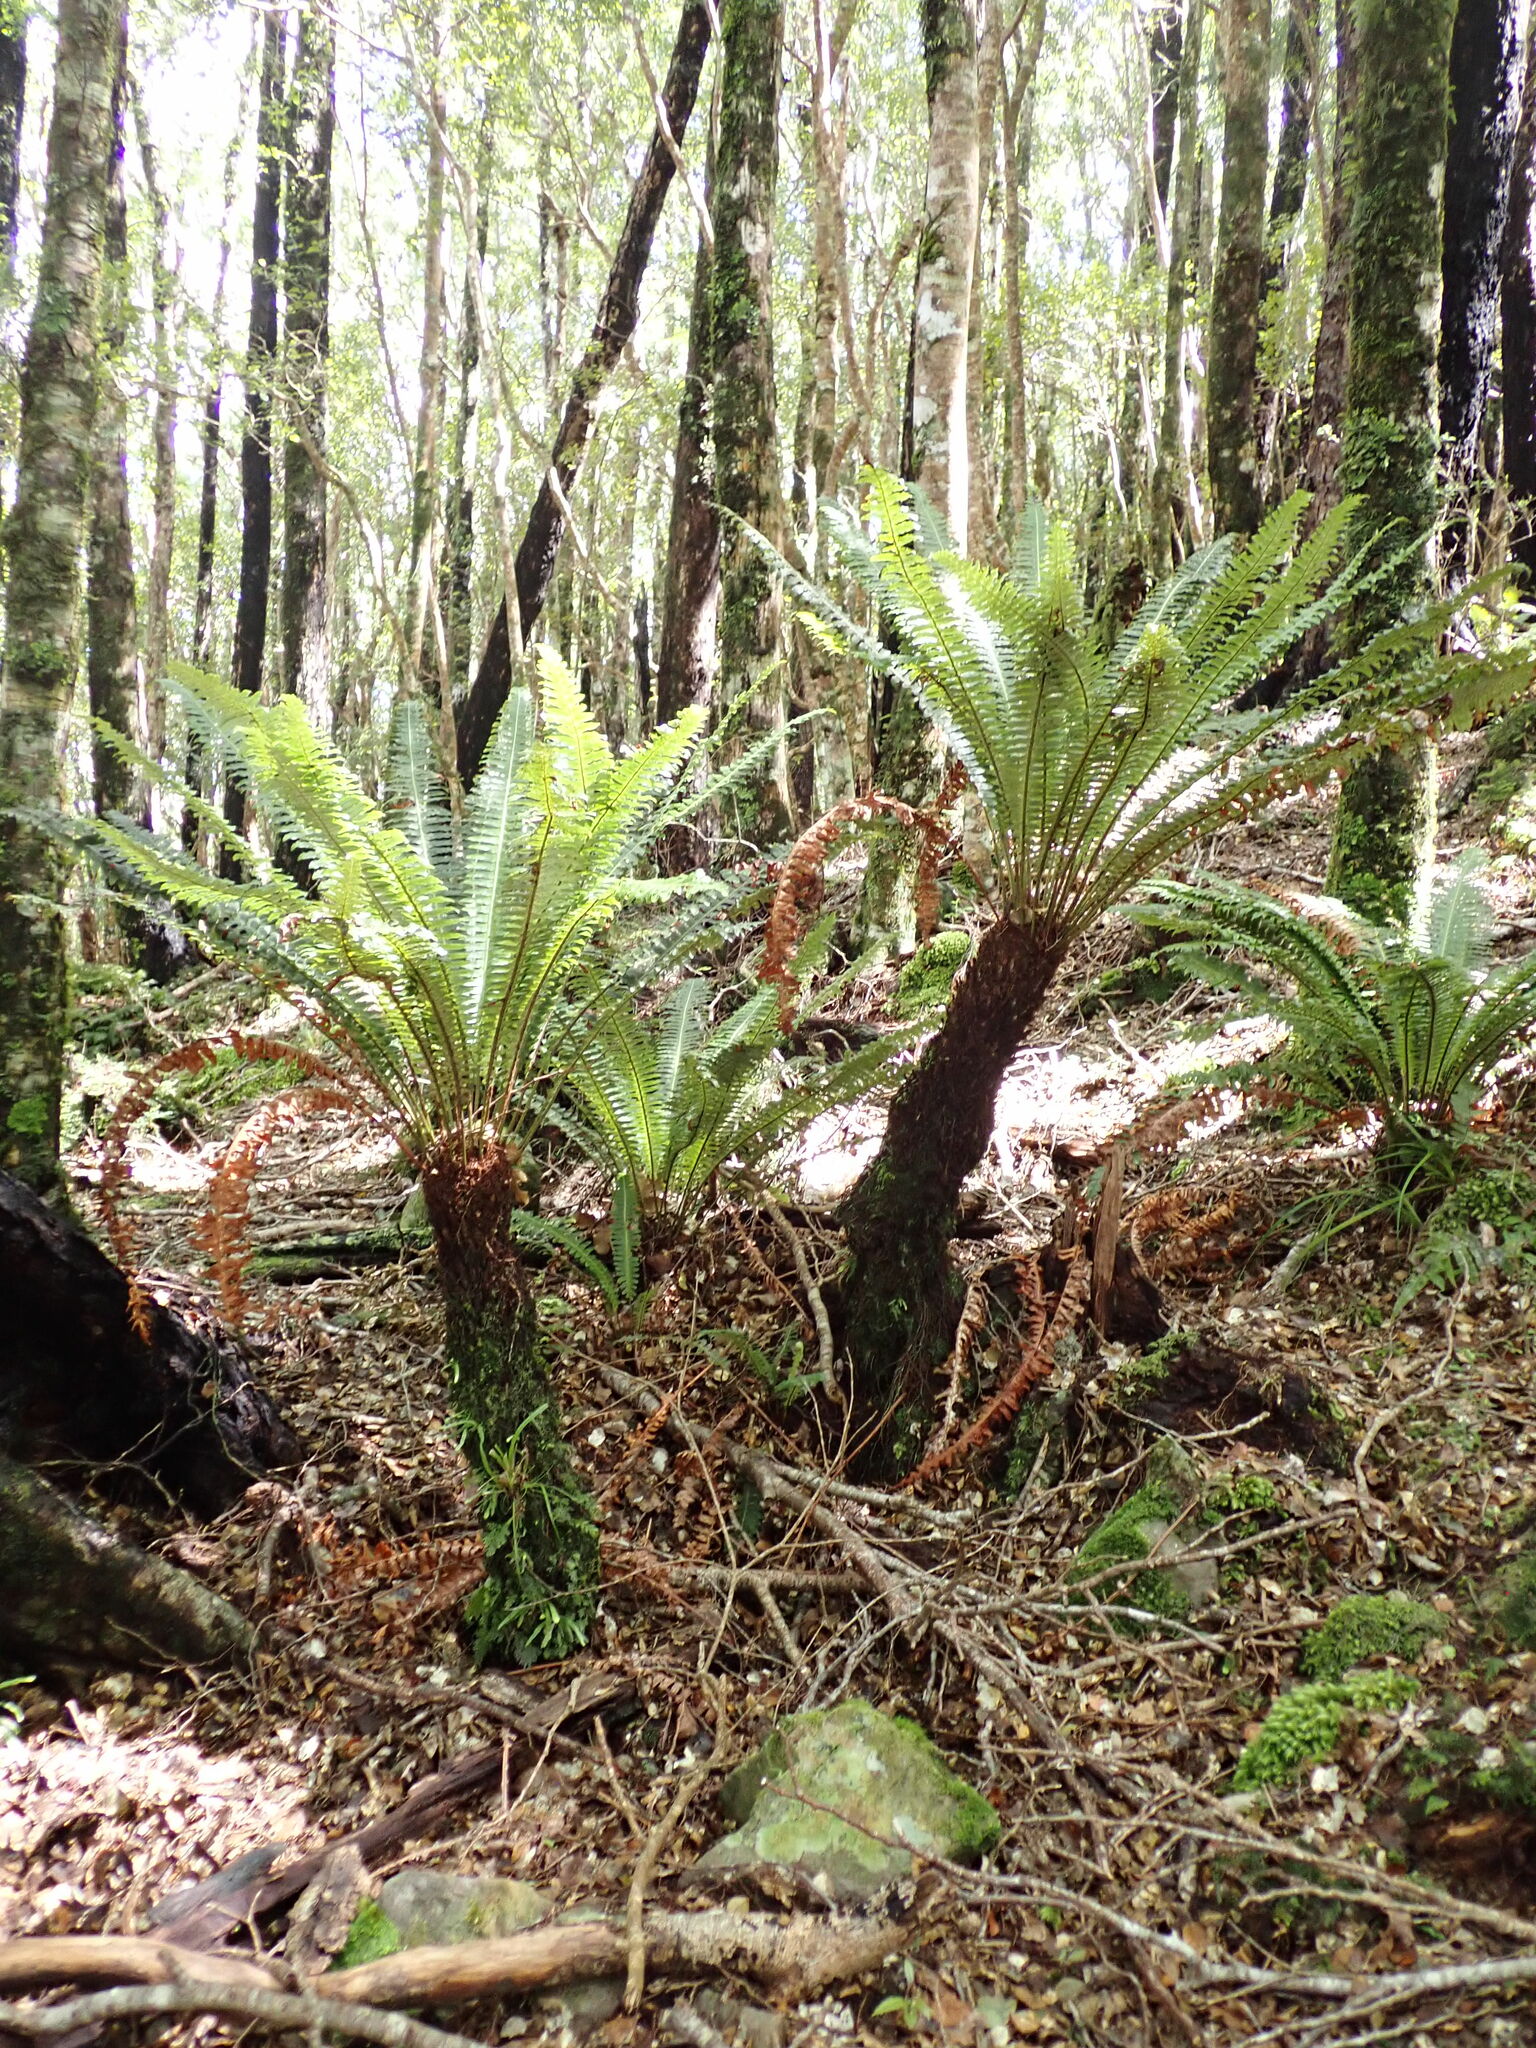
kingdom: Plantae
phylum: Tracheophyta
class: Polypodiopsida
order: Polypodiales
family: Blechnaceae
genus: Lomaria
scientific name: Lomaria discolor
